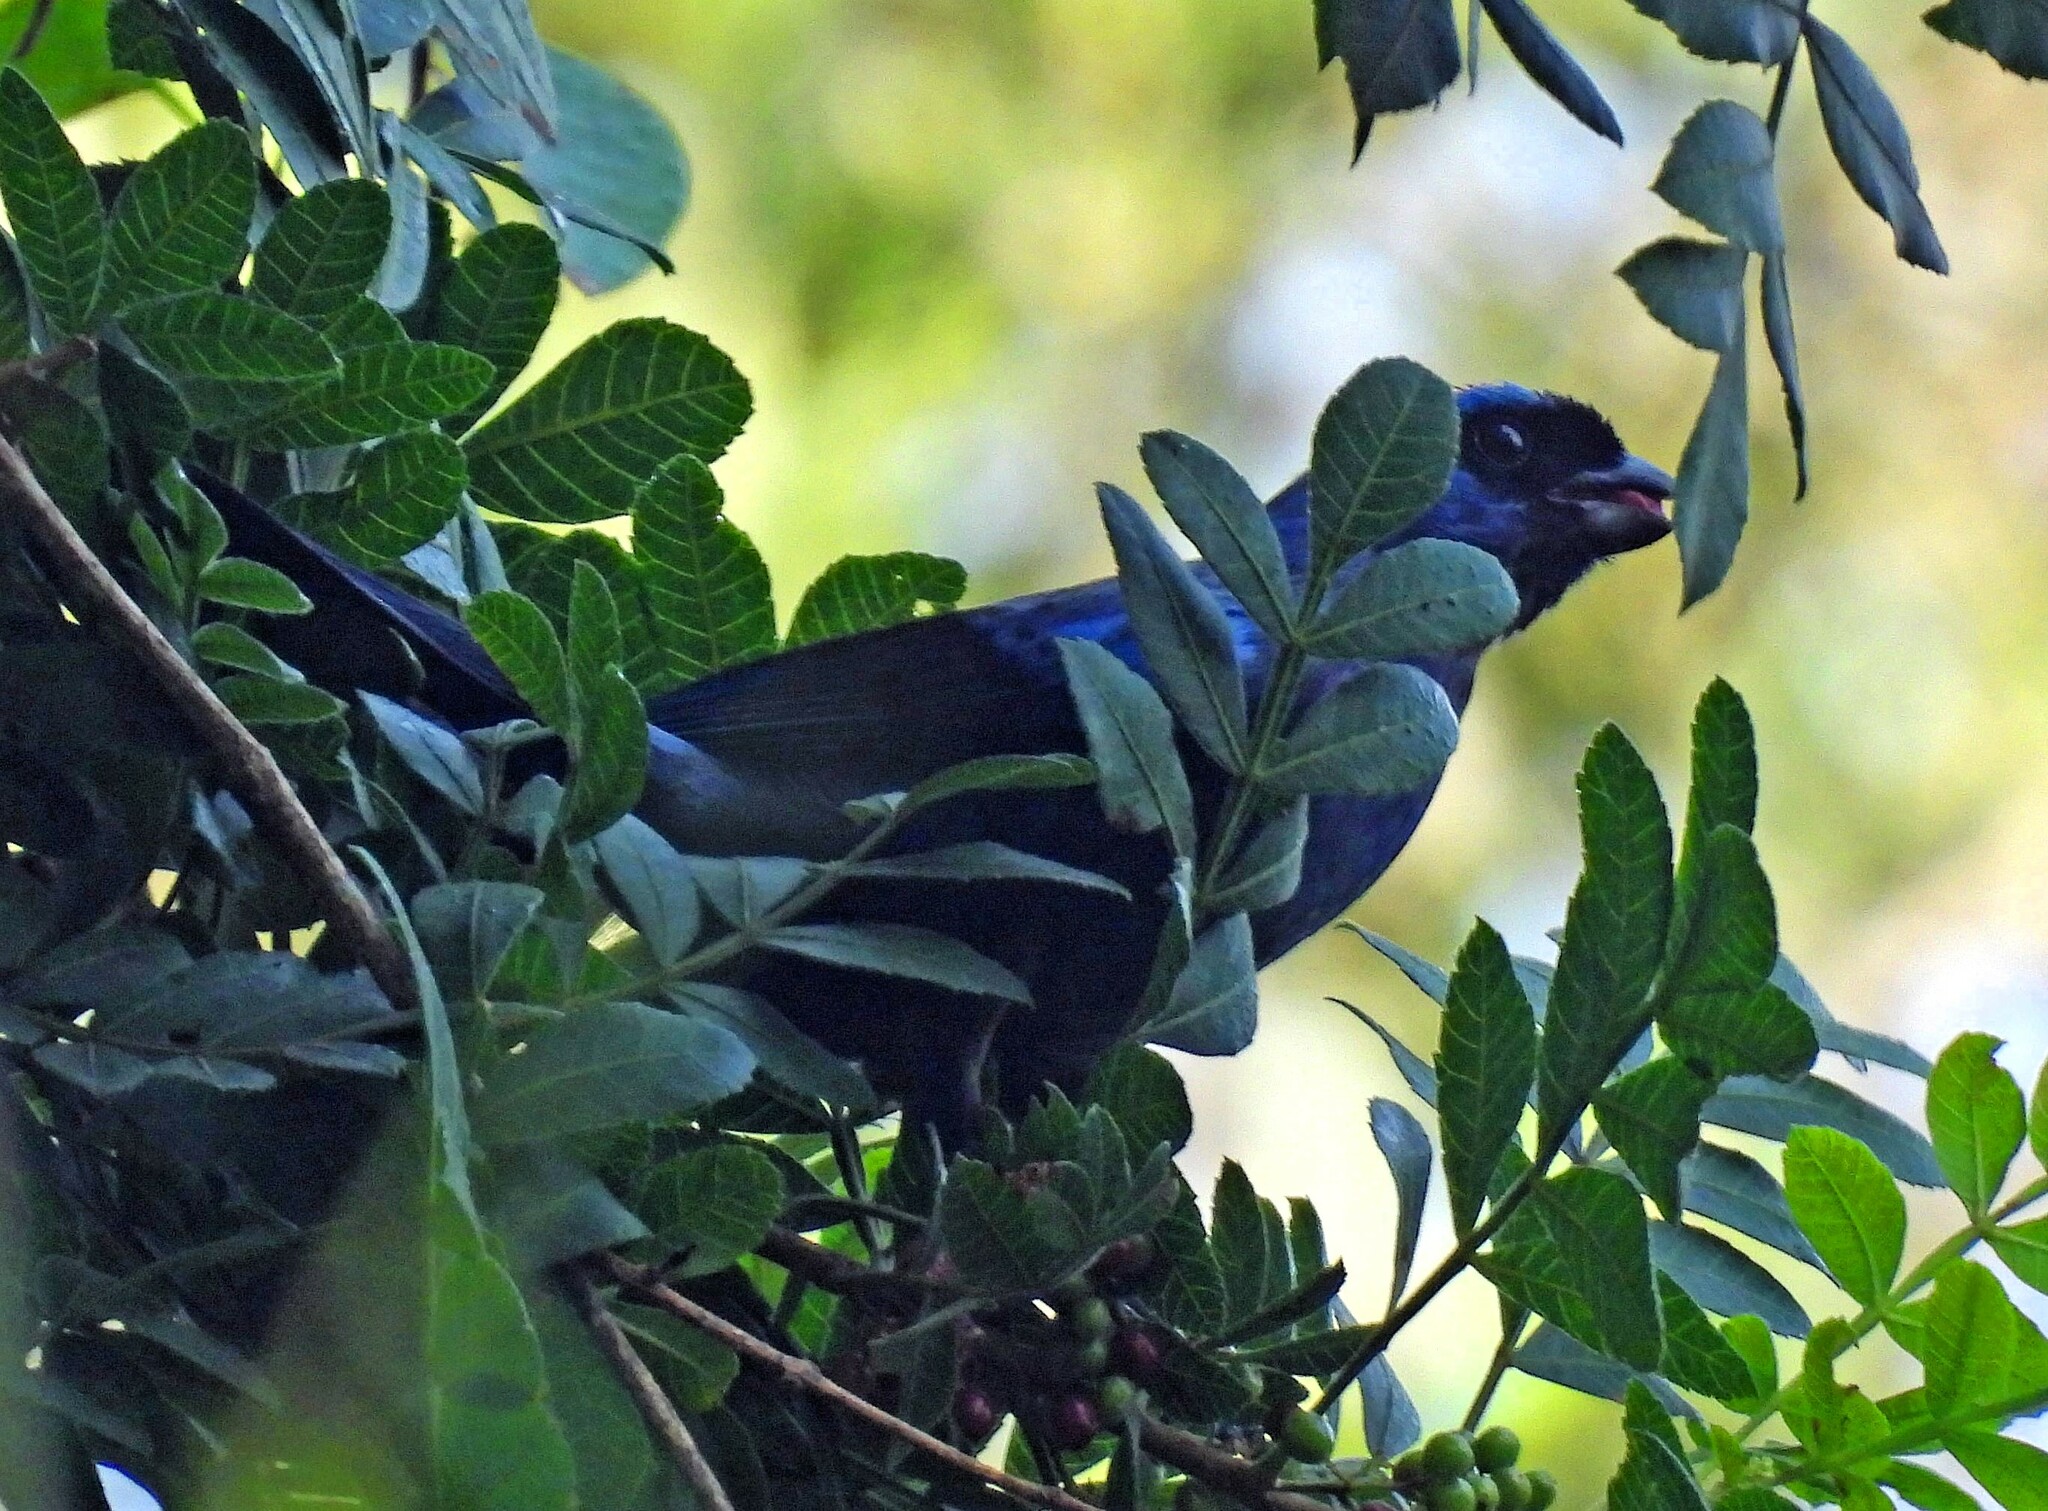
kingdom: Animalia
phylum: Chordata
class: Aves
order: Passeriformes
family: Thraupidae
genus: Stephanophorus
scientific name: Stephanophorus diadematus
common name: Diademed tanager
